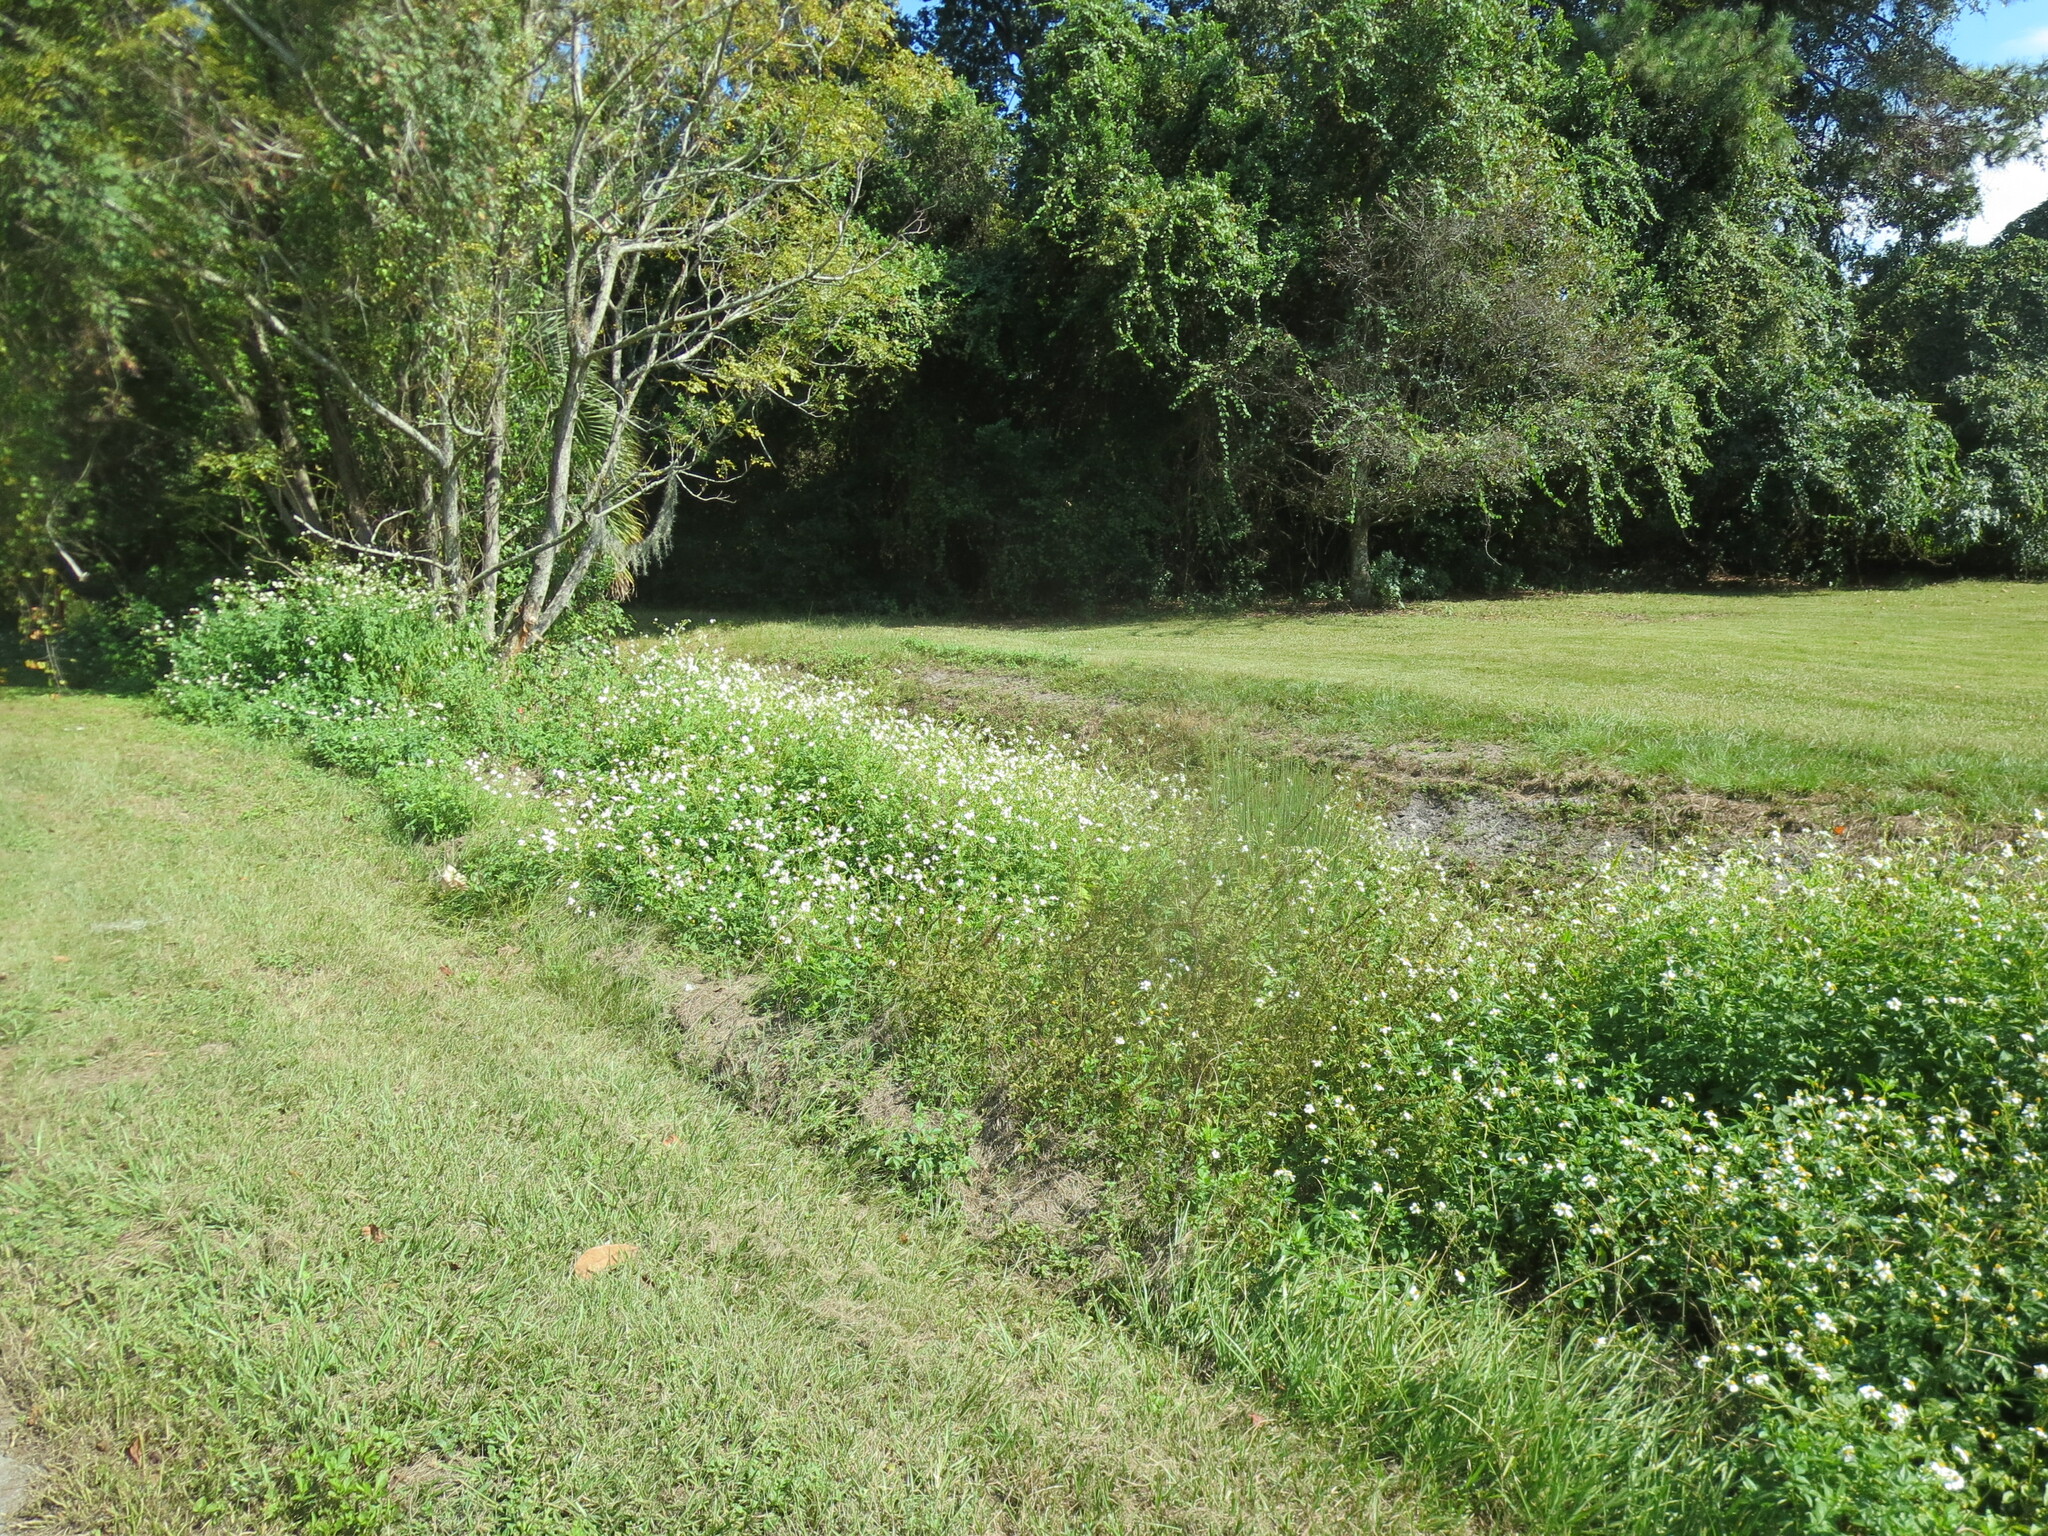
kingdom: Plantae
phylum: Tracheophyta
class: Magnoliopsida
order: Asterales
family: Asteraceae
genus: Bidens
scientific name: Bidens alba
